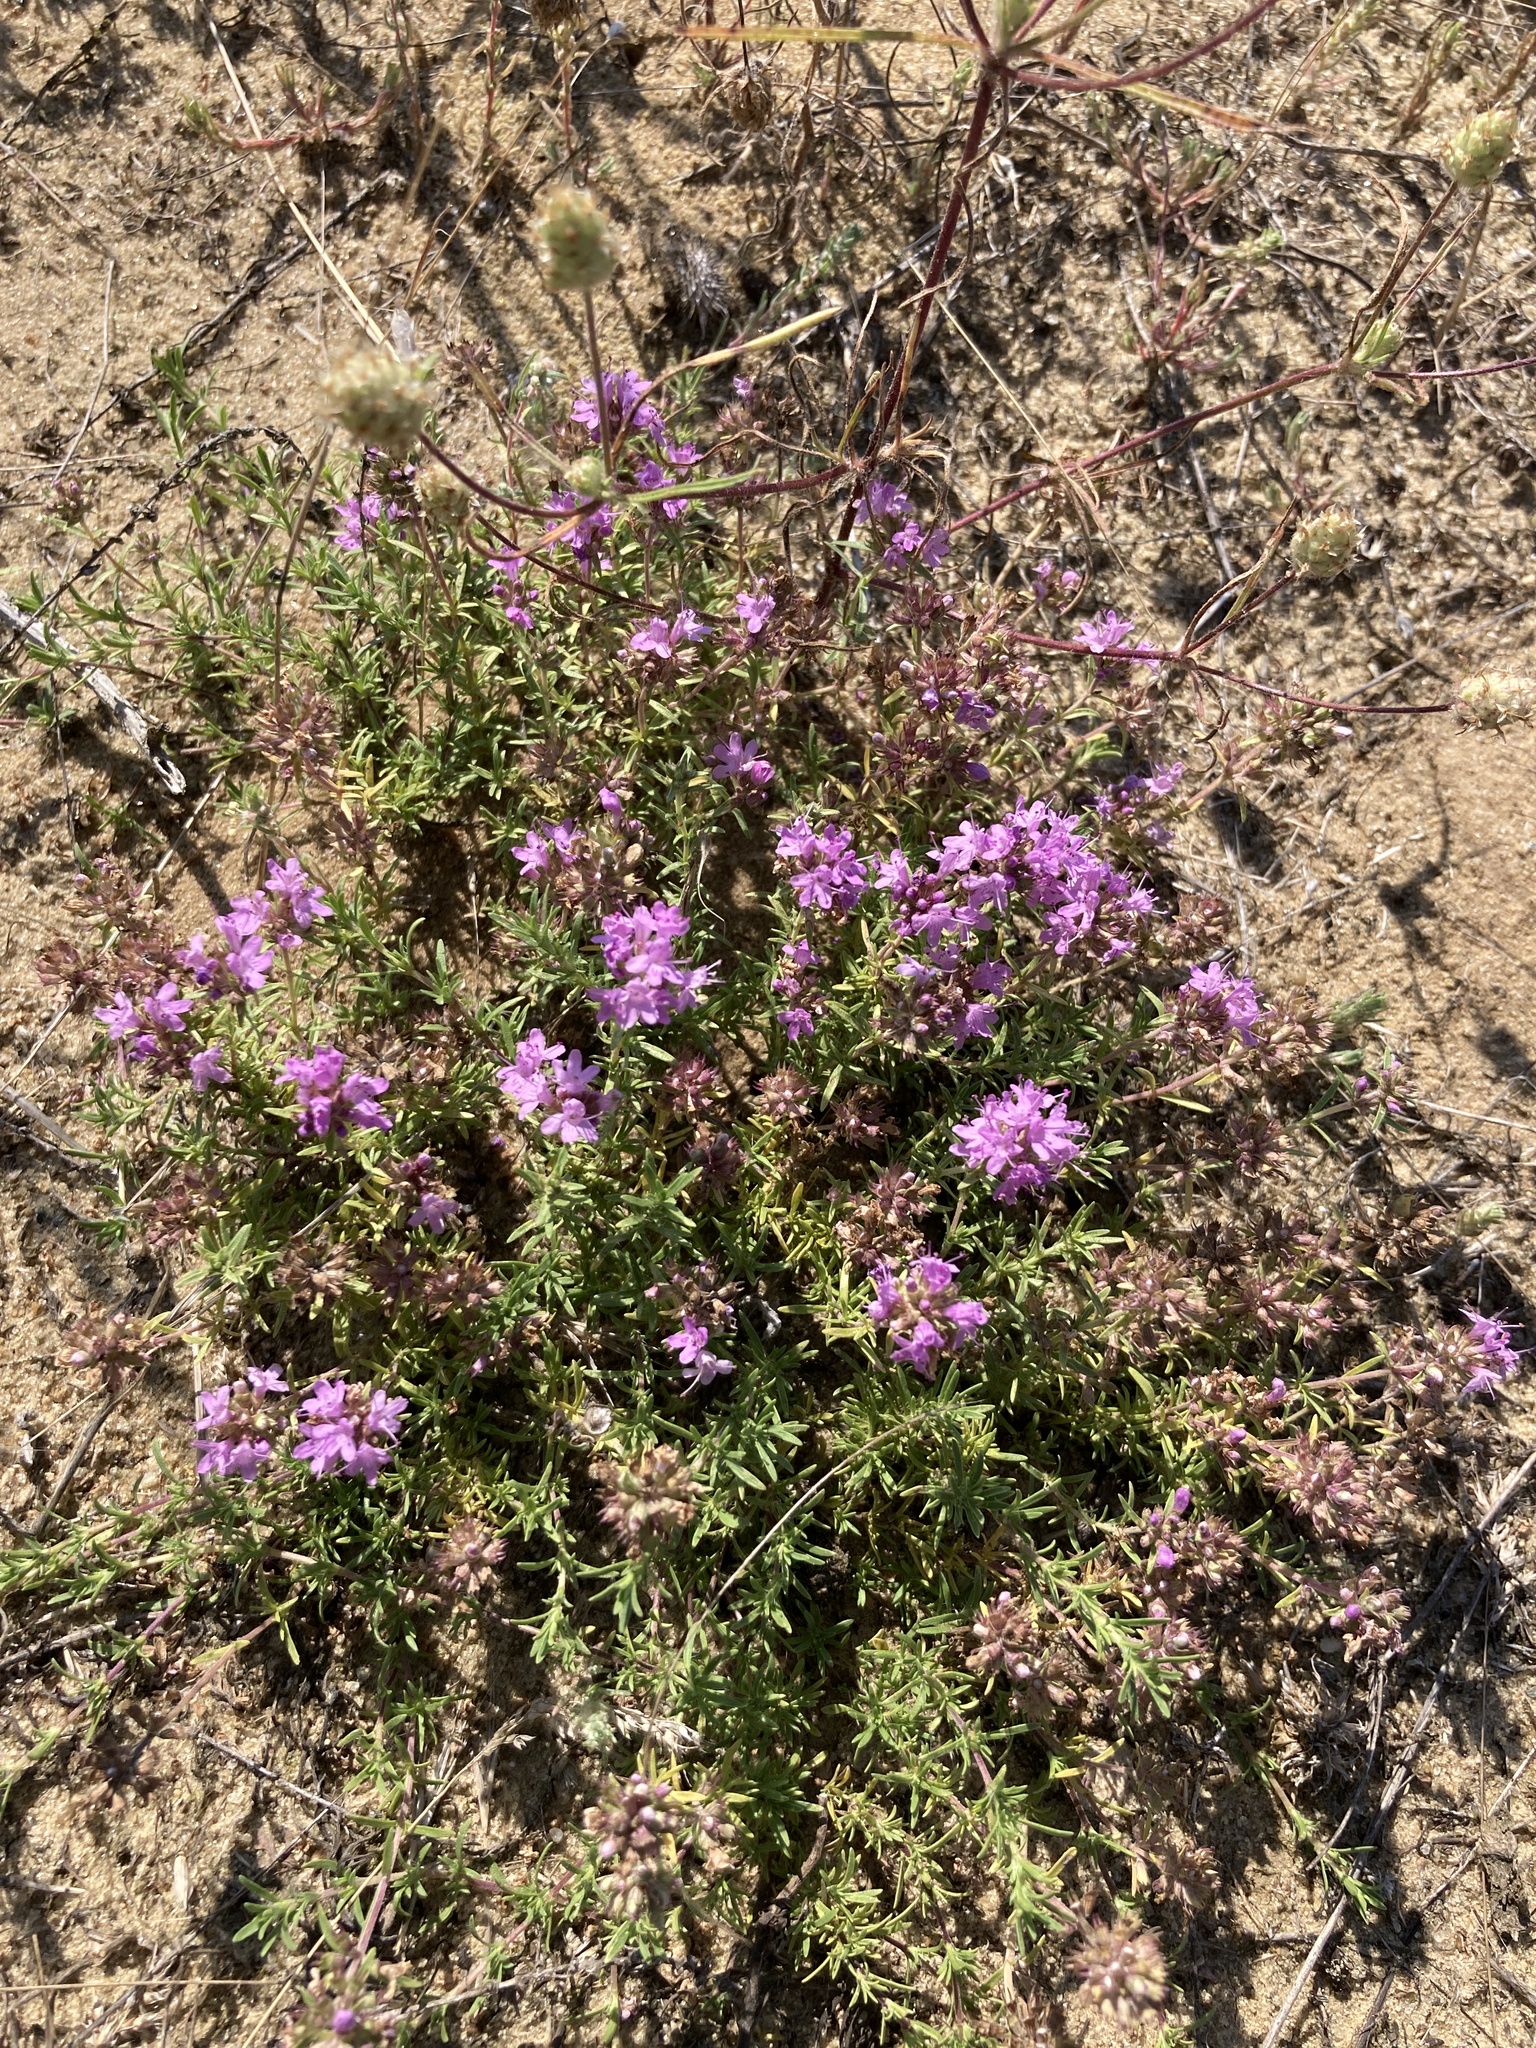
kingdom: Plantae
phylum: Tracheophyta
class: Magnoliopsida
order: Lamiales
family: Lamiaceae
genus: Thymus
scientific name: Thymus pallasianus
